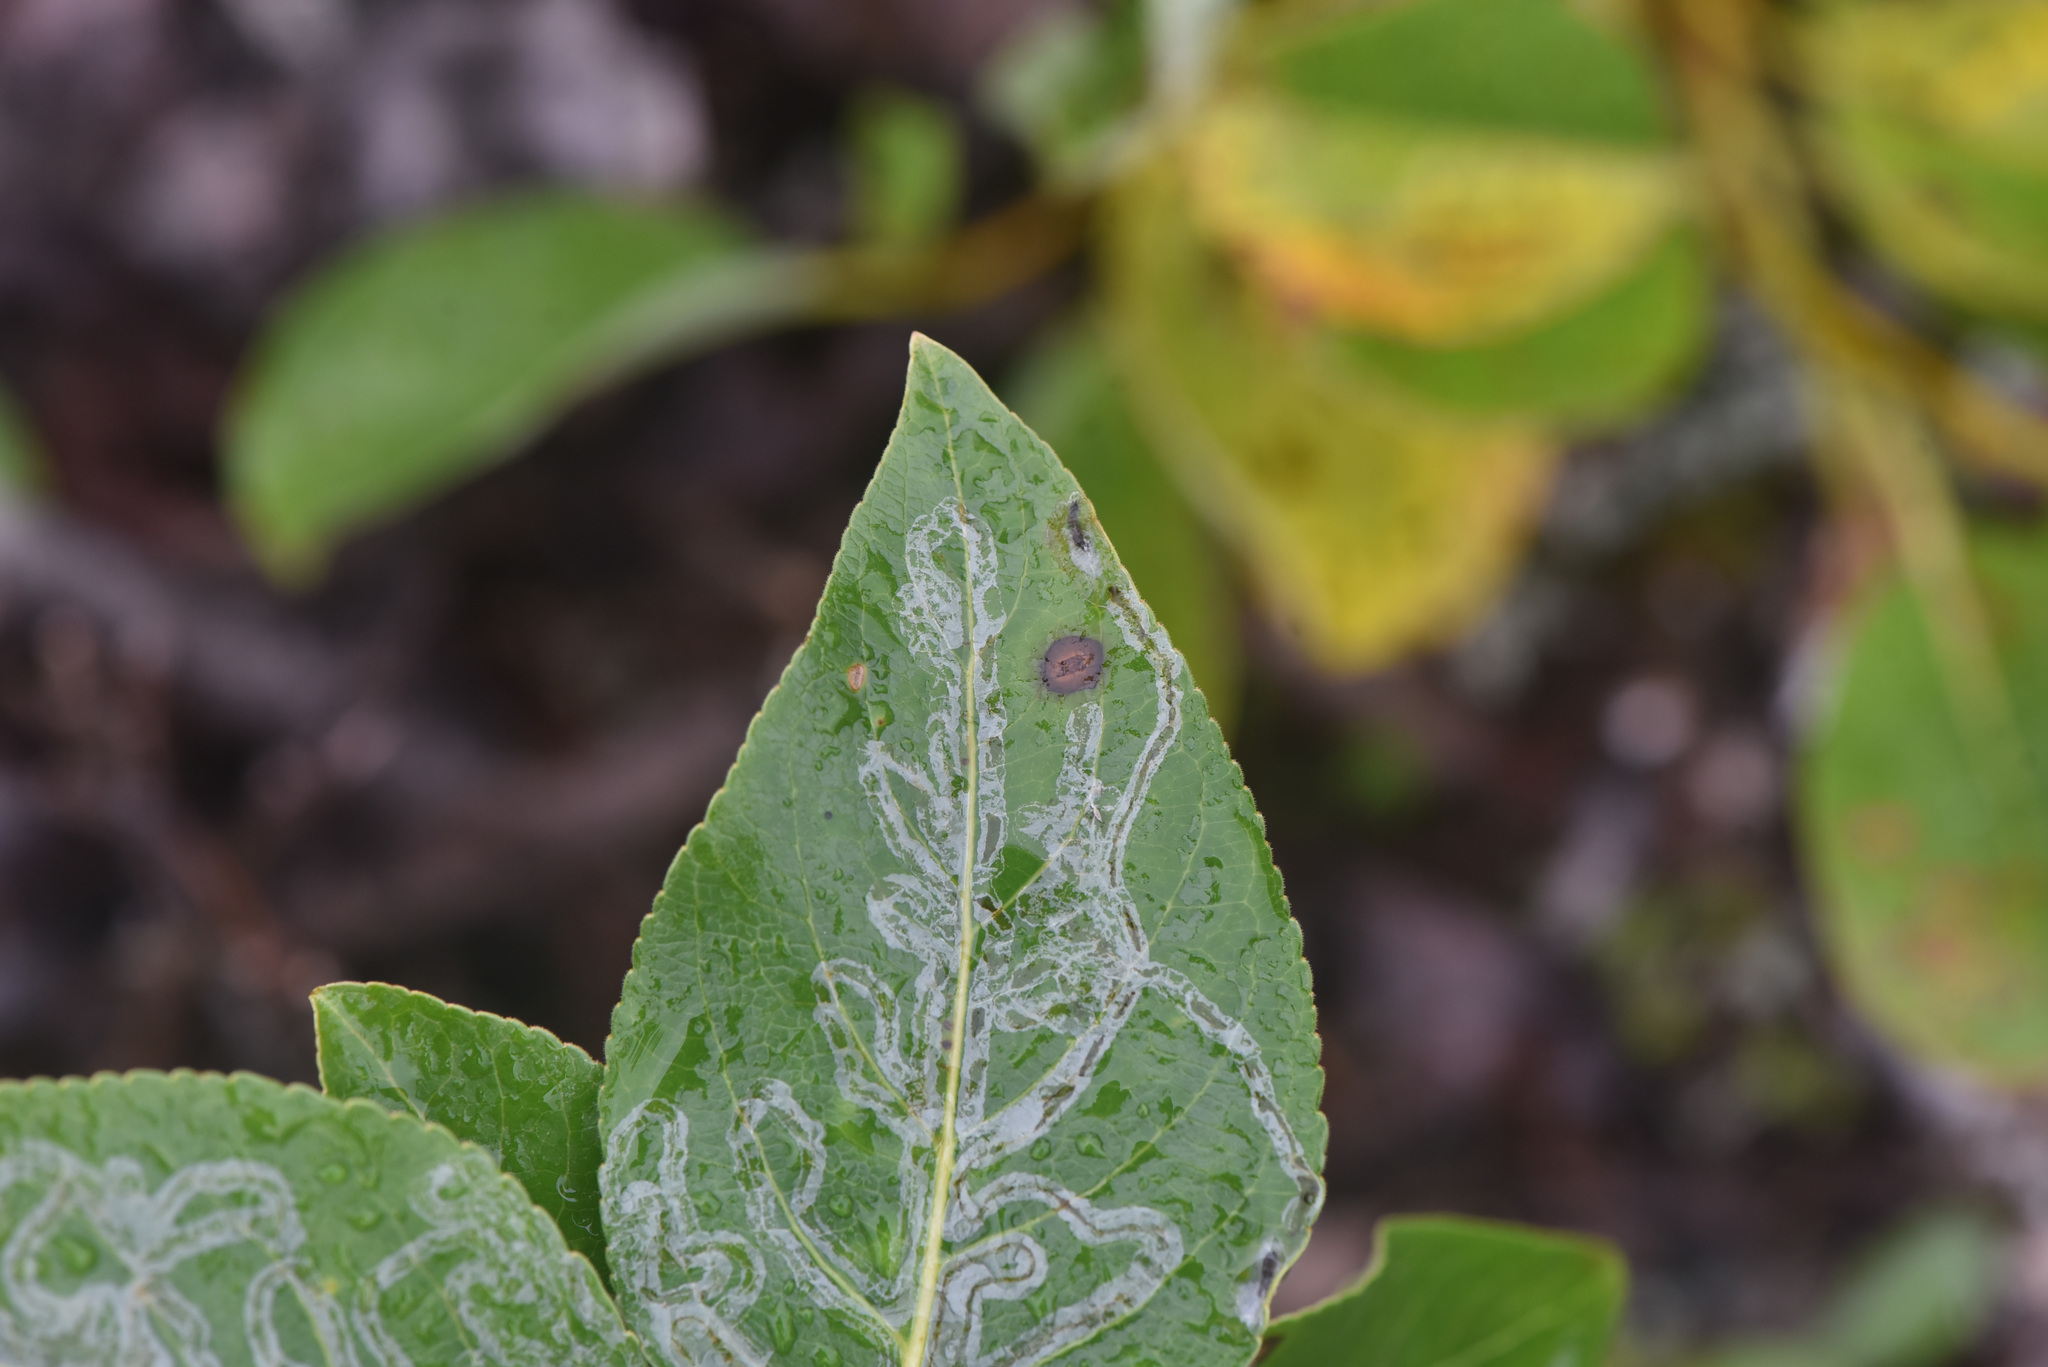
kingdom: Animalia
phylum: Arthropoda
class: Insecta
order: Lepidoptera
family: Gracillariidae
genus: Phyllocnistis
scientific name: Phyllocnistis populiella
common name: Aspen serpentine leafminer moth
